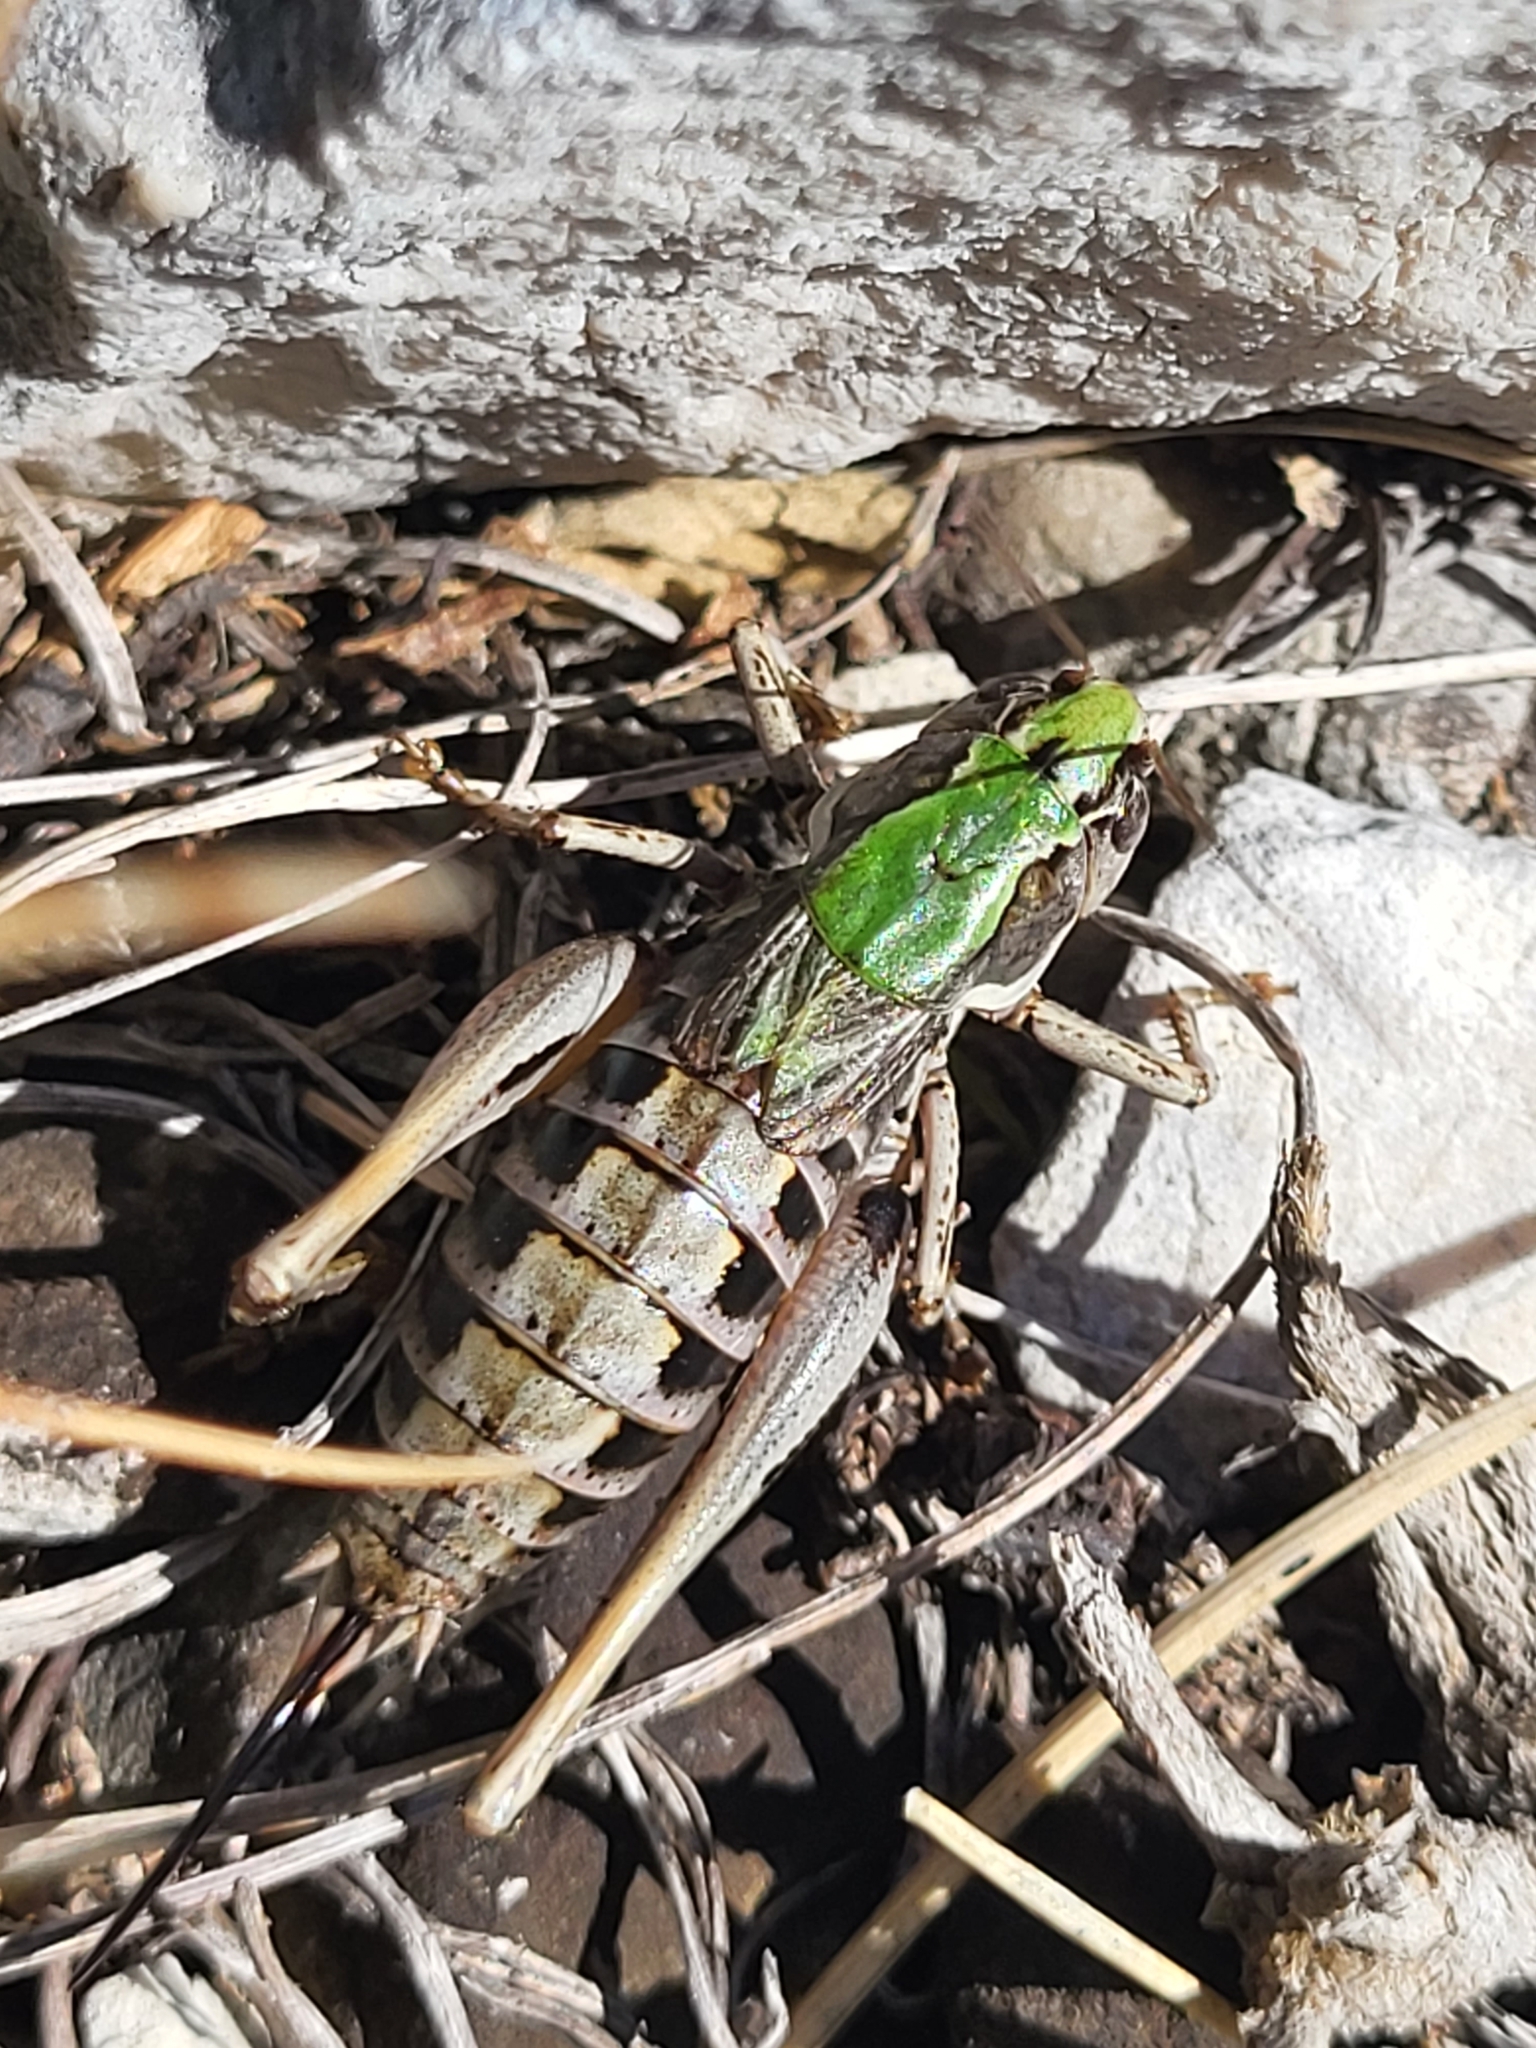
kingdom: Animalia
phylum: Arthropoda
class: Insecta
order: Orthoptera
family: Tettigoniidae
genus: Metrioptera
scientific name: Metrioptera hoermanni
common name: Balkan meadow bush-cricket
